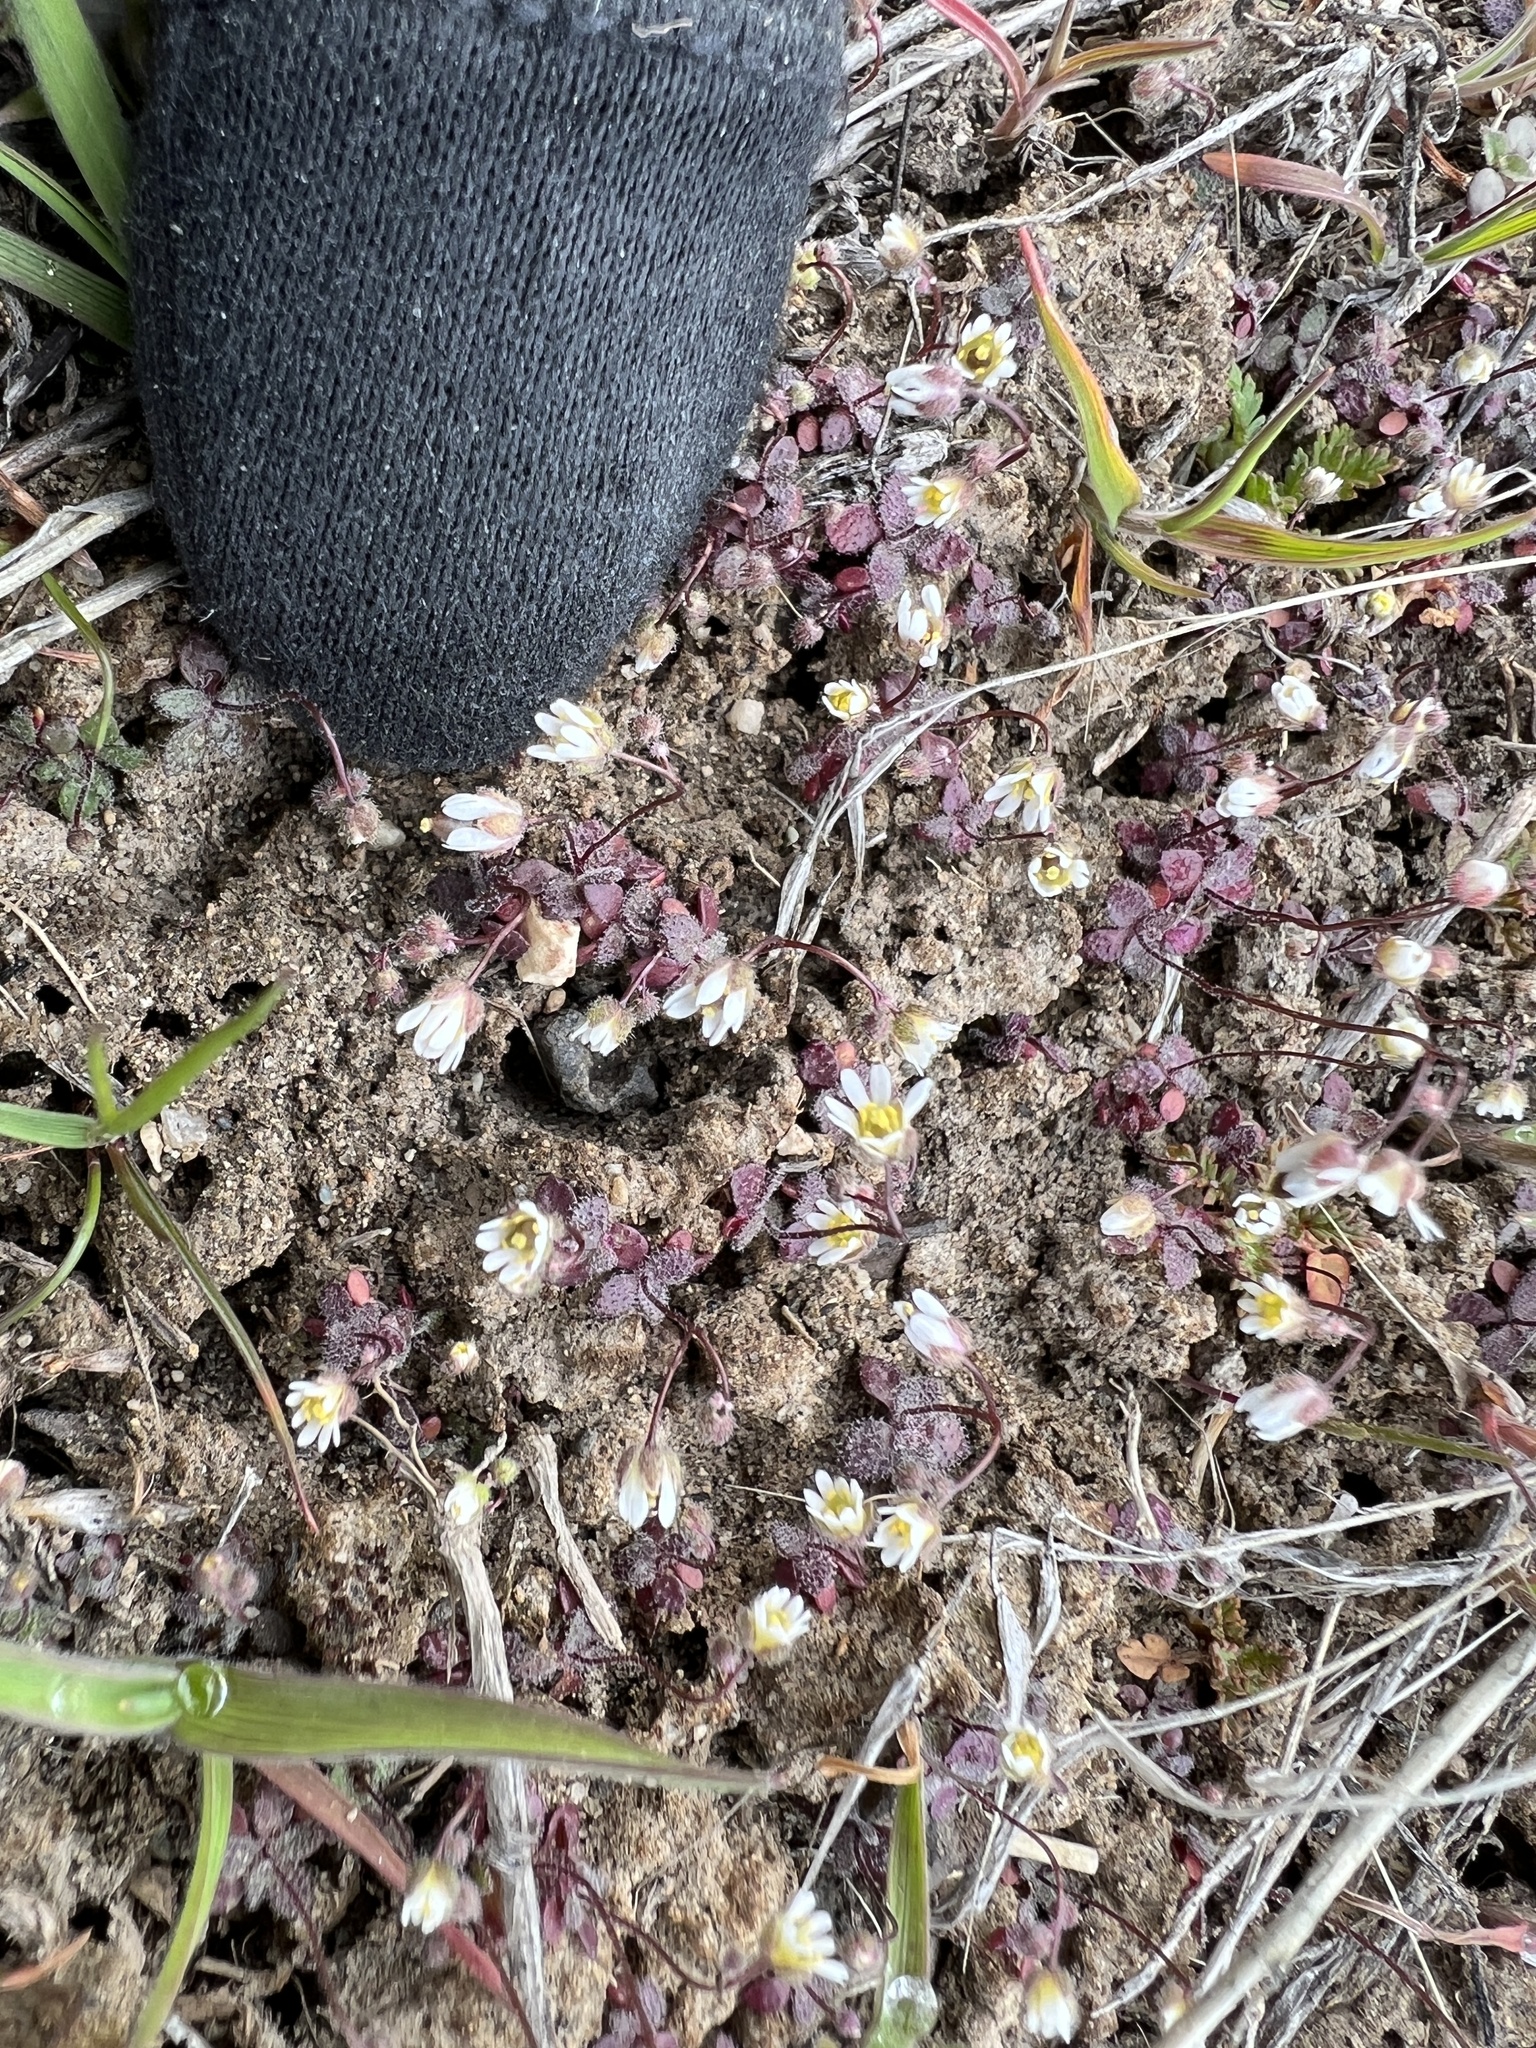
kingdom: Plantae
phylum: Tracheophyta
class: Magnoliopsida
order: Brassicales
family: Brassicaceae
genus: Draba
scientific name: Draba verna
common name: Spring draba
